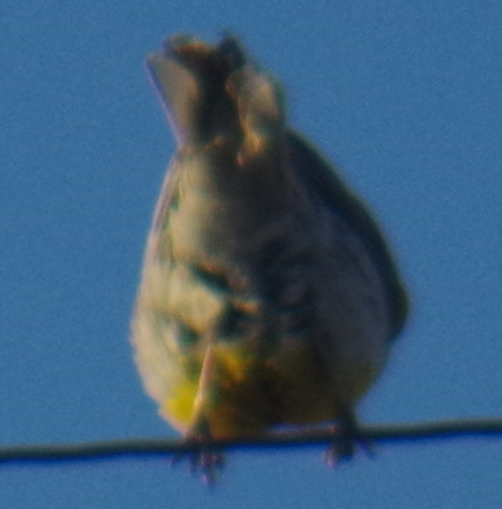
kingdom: Animalia
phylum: Chordata
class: Aves
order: Passeriformes
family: Icteridae
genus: Sturnella
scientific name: Sturnella neglecta
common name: Western meadowlark
